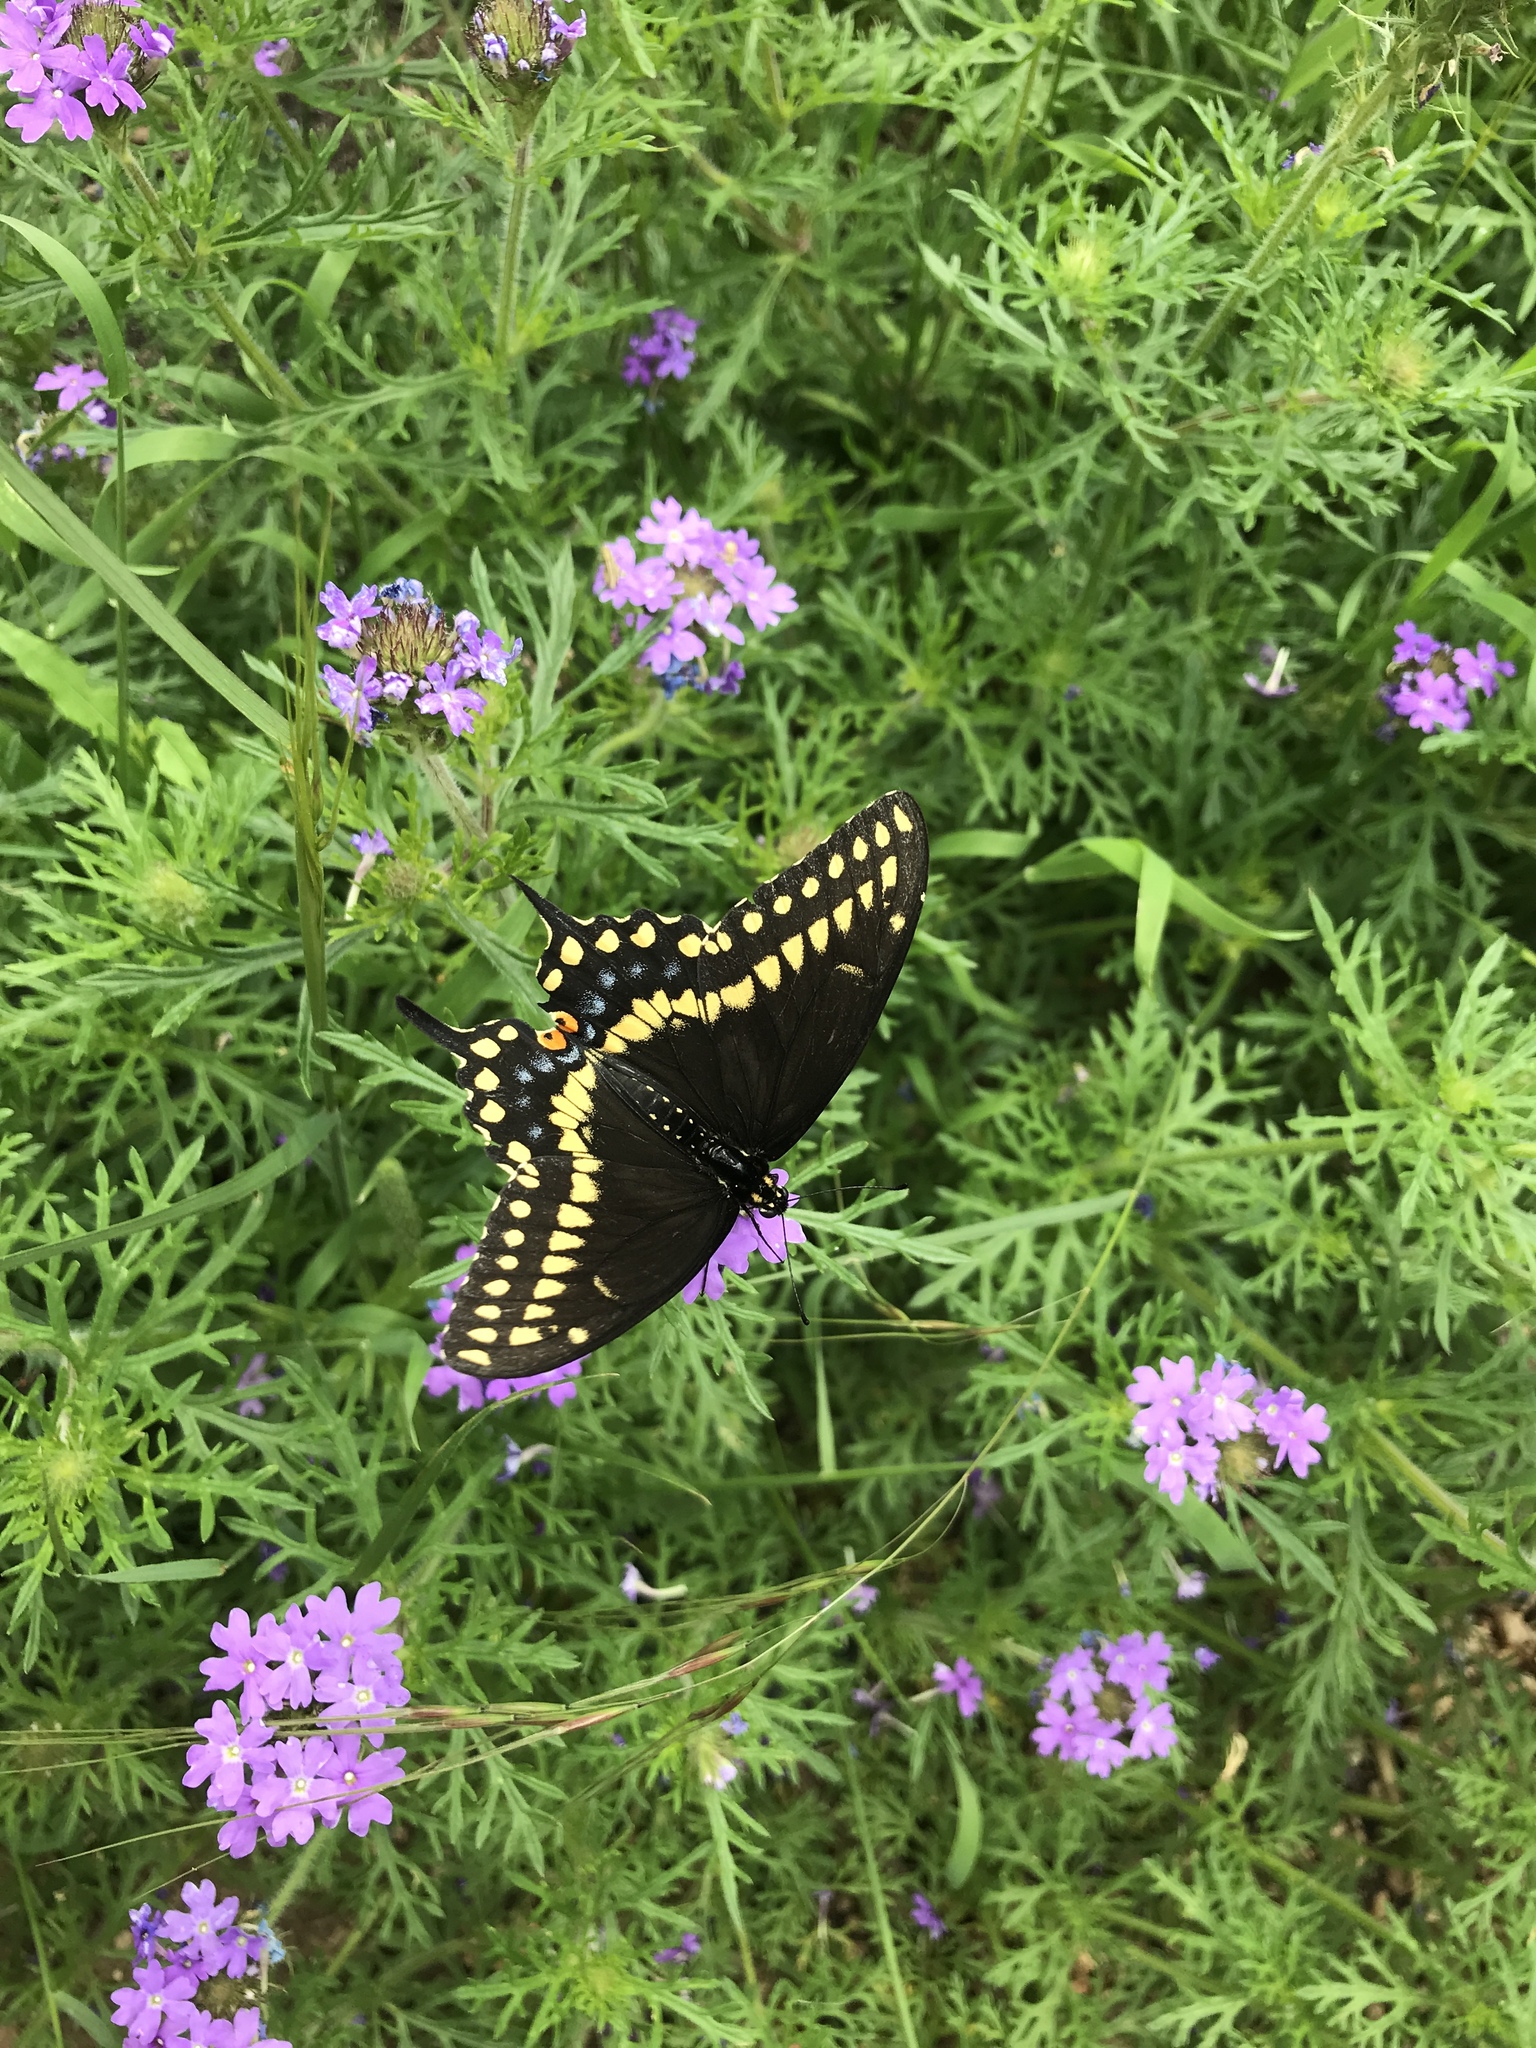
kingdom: Animalia
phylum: Arthropoda
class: Insecta
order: Lepidoptera
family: Papilionidae
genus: Papilio
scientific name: Papilio polyxenes
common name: Black swallowtail
